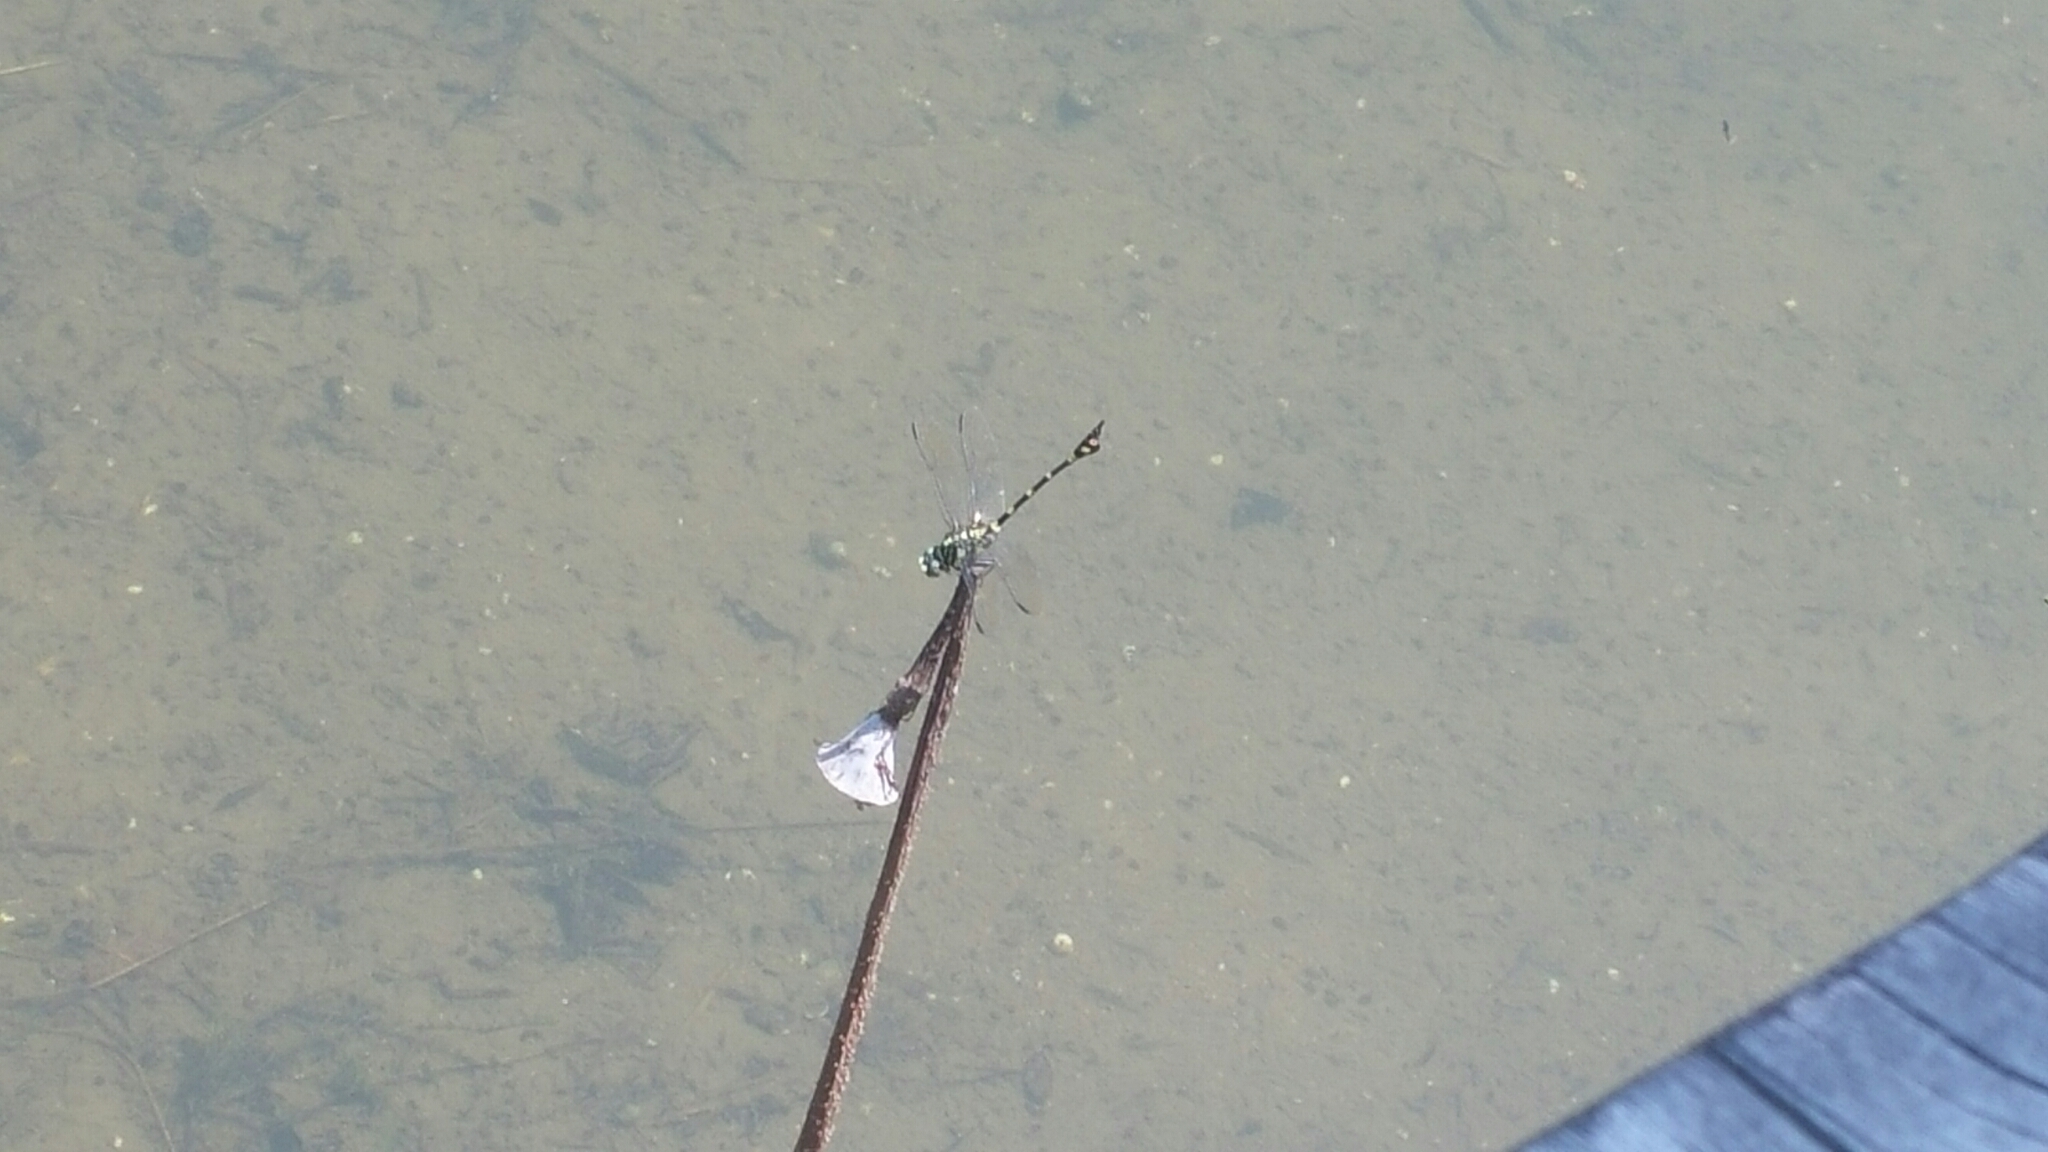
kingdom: Animalia
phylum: Arthropoda
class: Insecta
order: Odonata
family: Gomphidae
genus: Ictinogomphus
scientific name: Ictinogomphus pertinax
